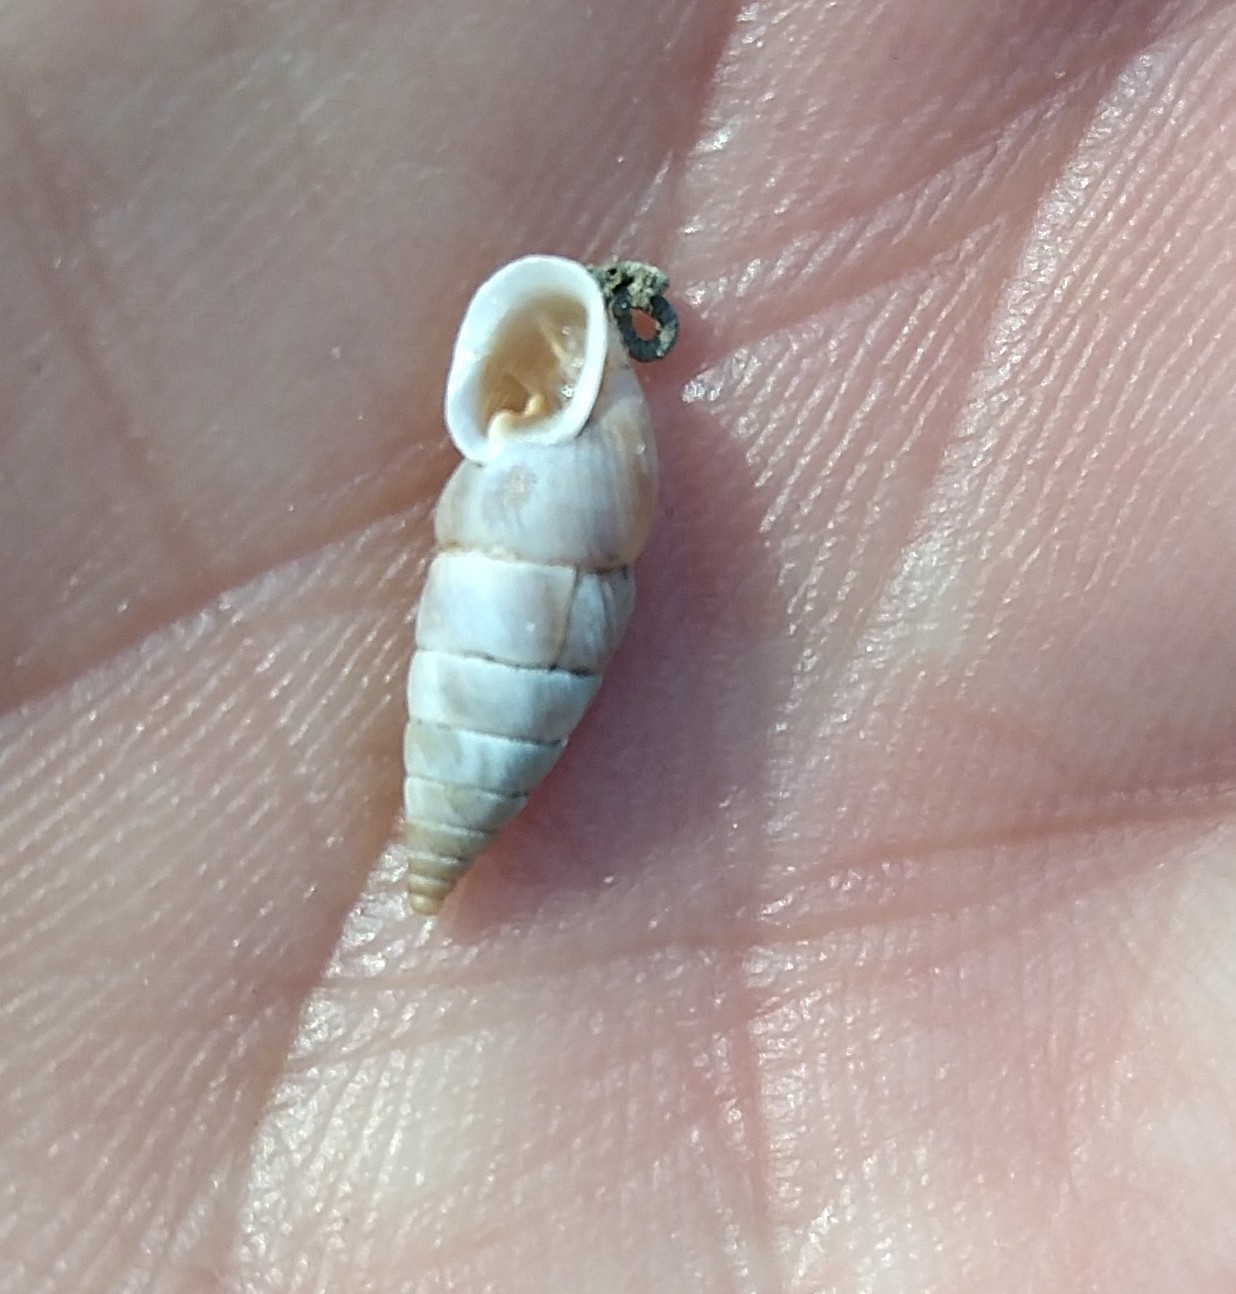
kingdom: Animalia
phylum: Mollusca
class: Gastropoda
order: Stylommatophora
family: Chondrinidae
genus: Solatopupa
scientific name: Solatopupa juliana
